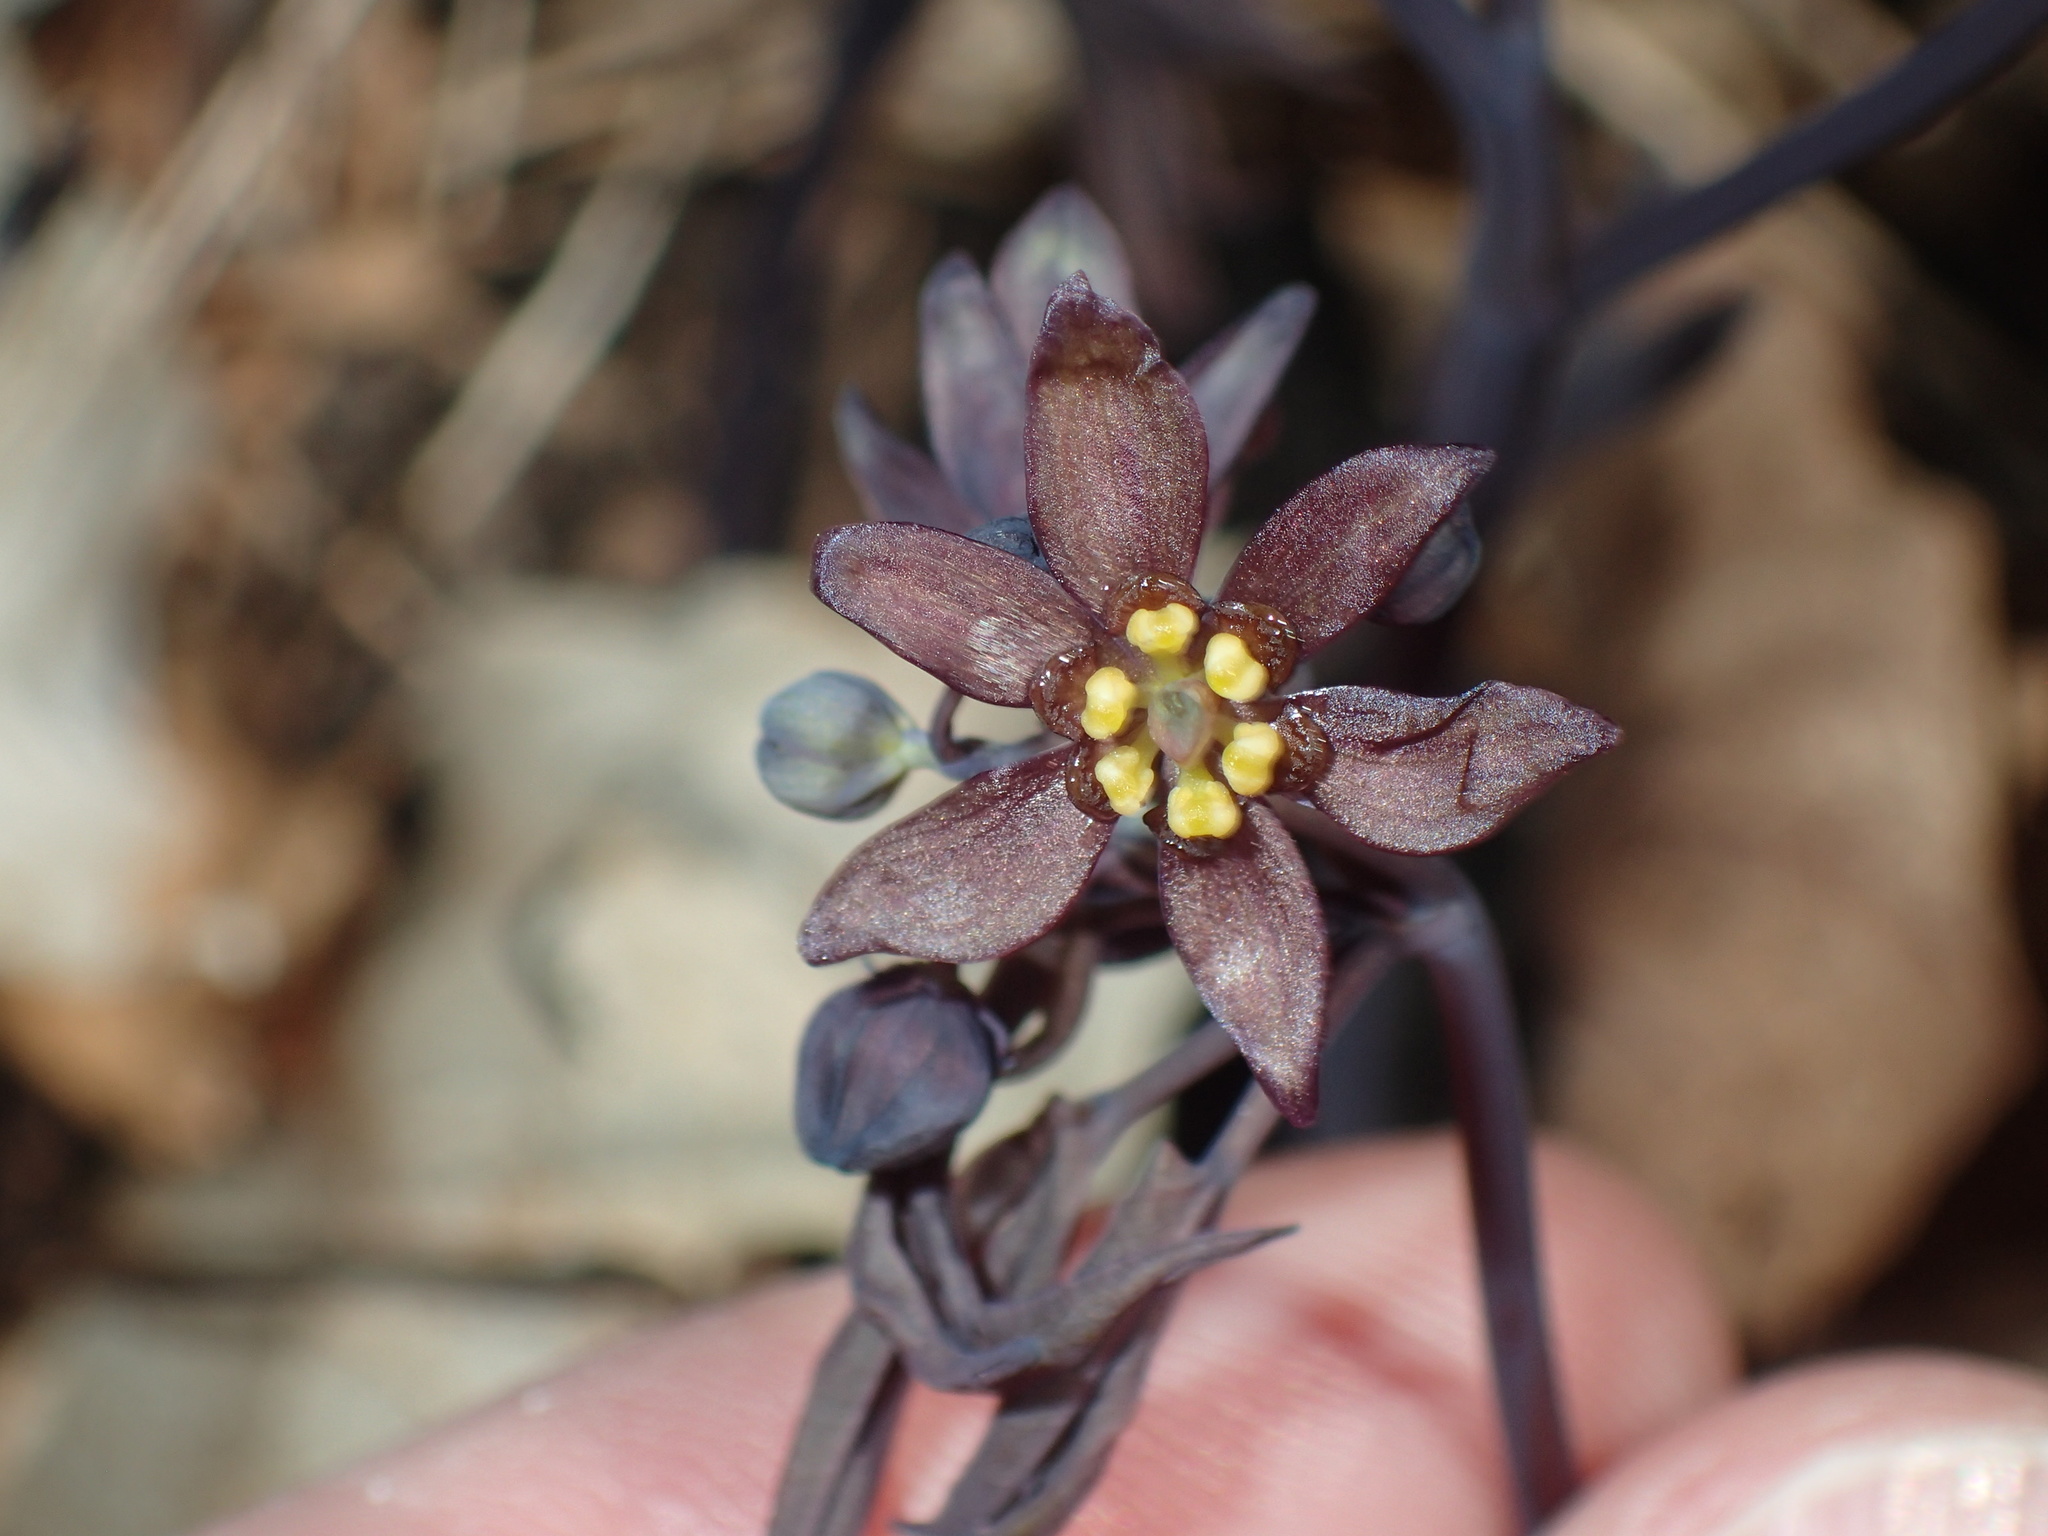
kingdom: Plantae
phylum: Tracheophyta
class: Magnoliopsida
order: Ranunculales
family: Berberidaceae
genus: Caulophyllum
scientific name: Caulophyllum giganteum
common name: Blue cohosh
